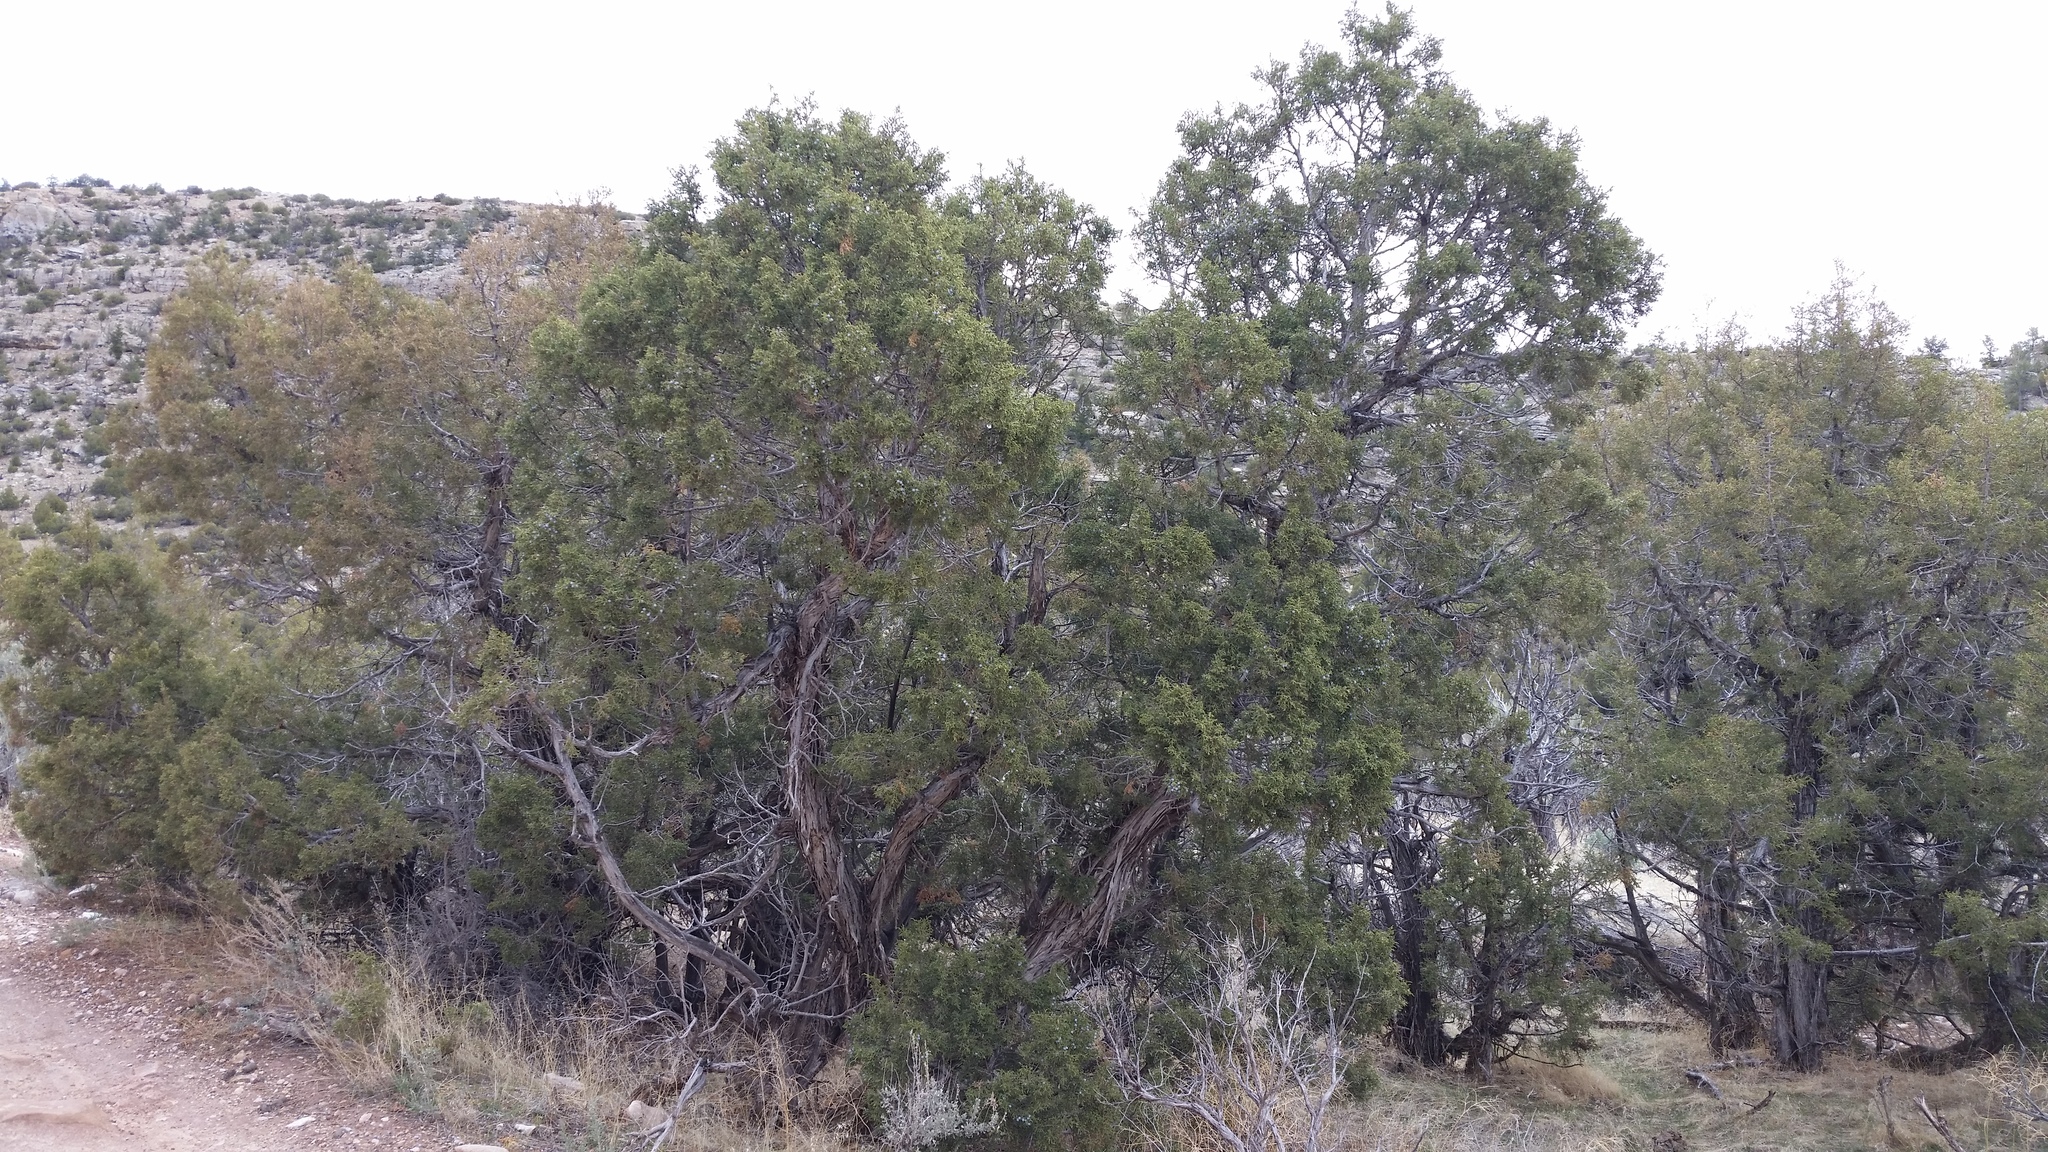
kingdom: Plantae
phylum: Tracheophyta
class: Pinopsida
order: Pinales
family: Cupressaceae
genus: Juniperus
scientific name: Juniperus osteosperma
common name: Utah juniper
